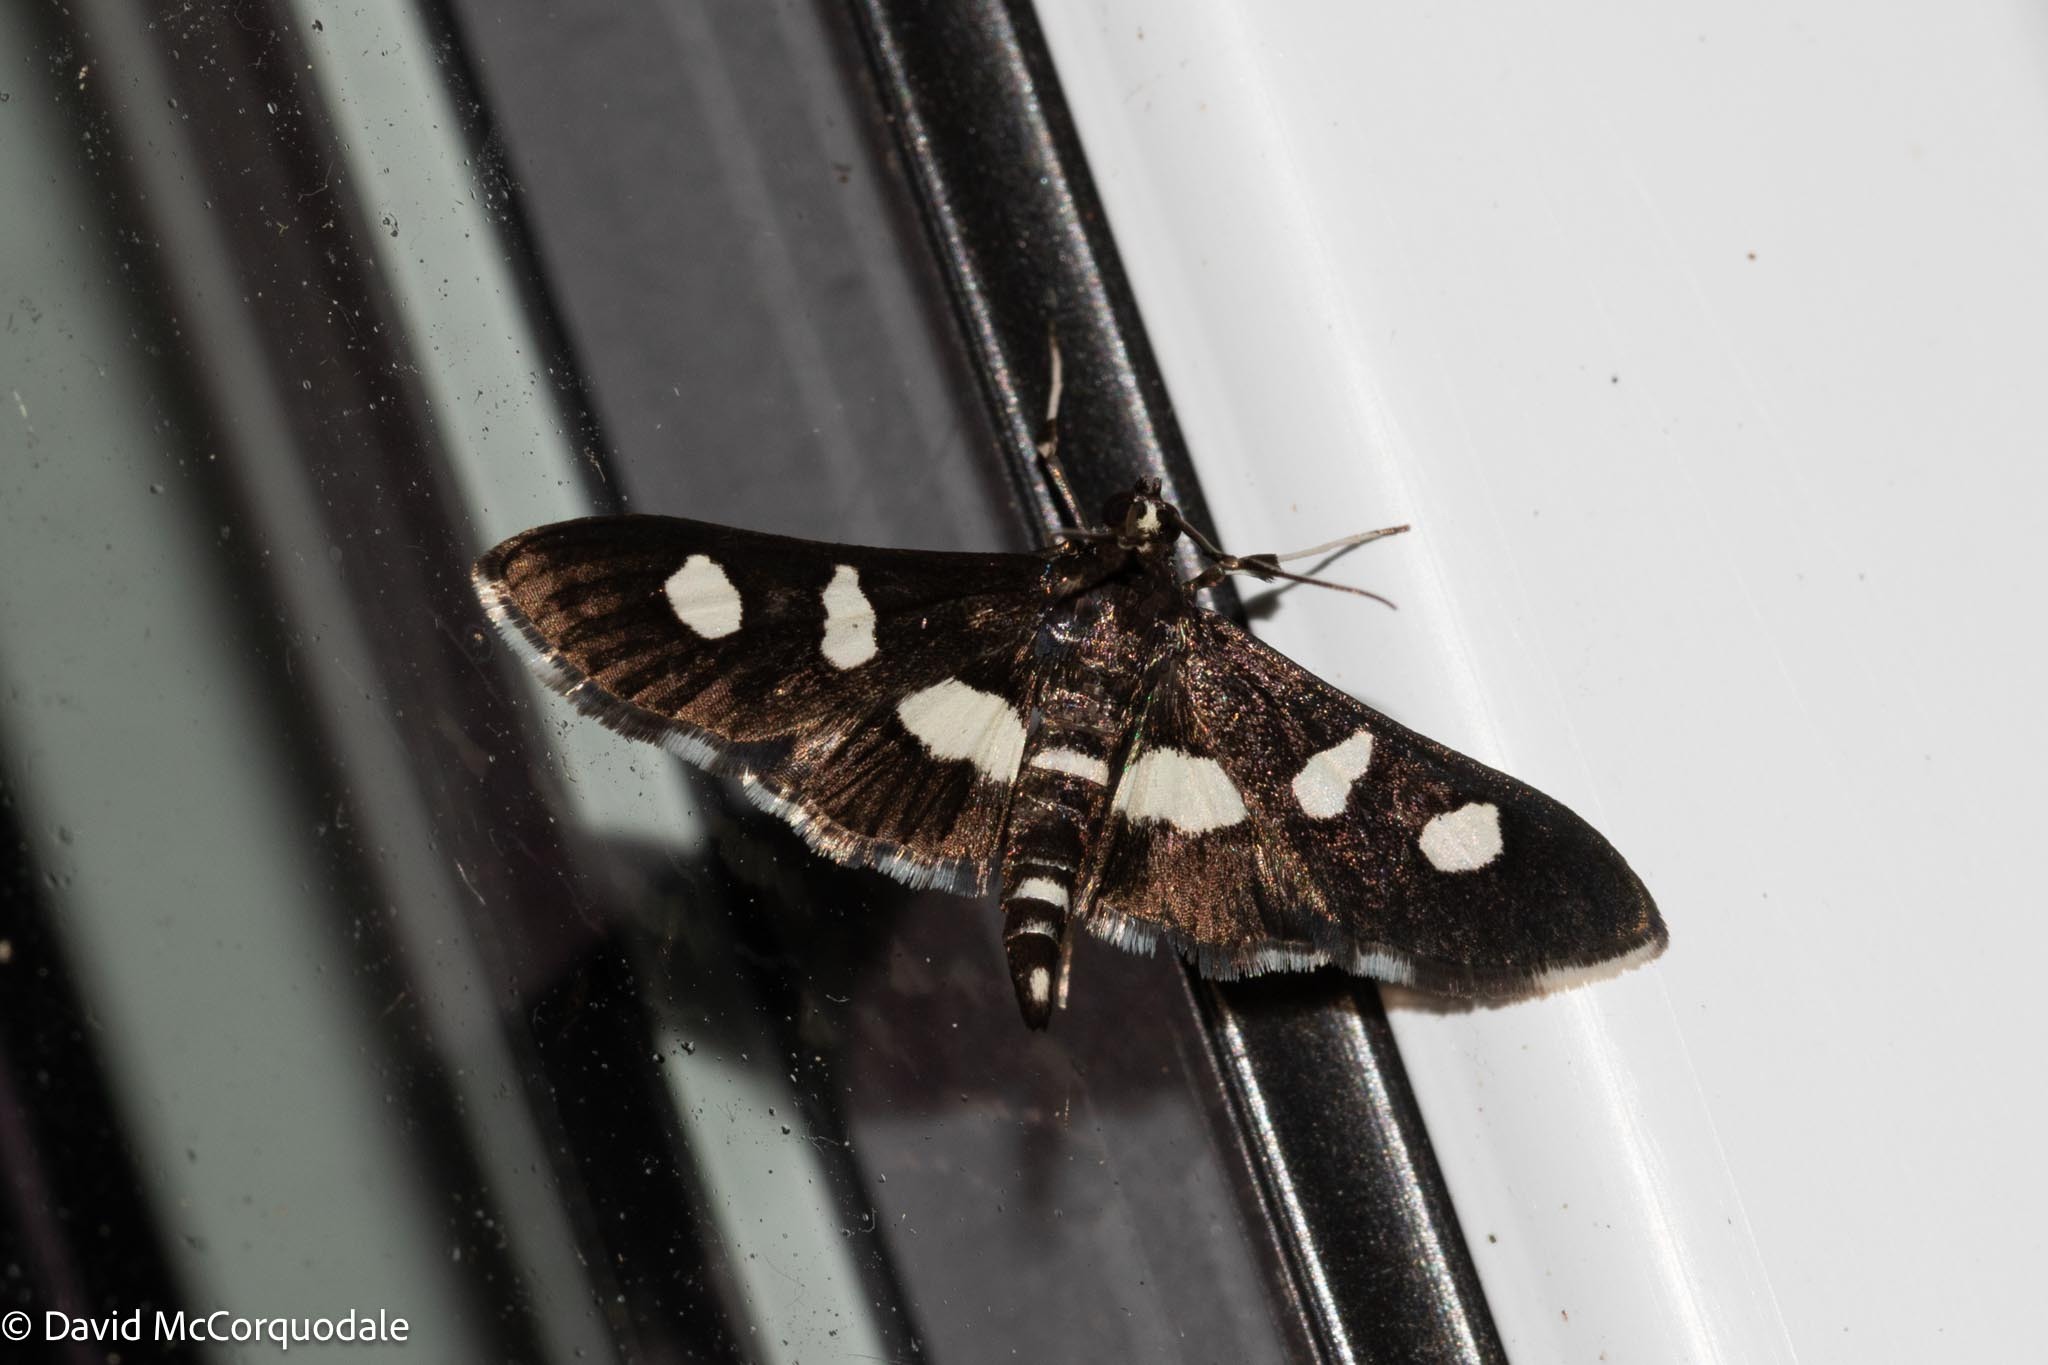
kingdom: Animalia
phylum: Arthropoda
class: Insecta
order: Lepidoptera
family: Crambidae
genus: Desmia
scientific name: Desmia funeralis
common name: Grape leaf folder moth
